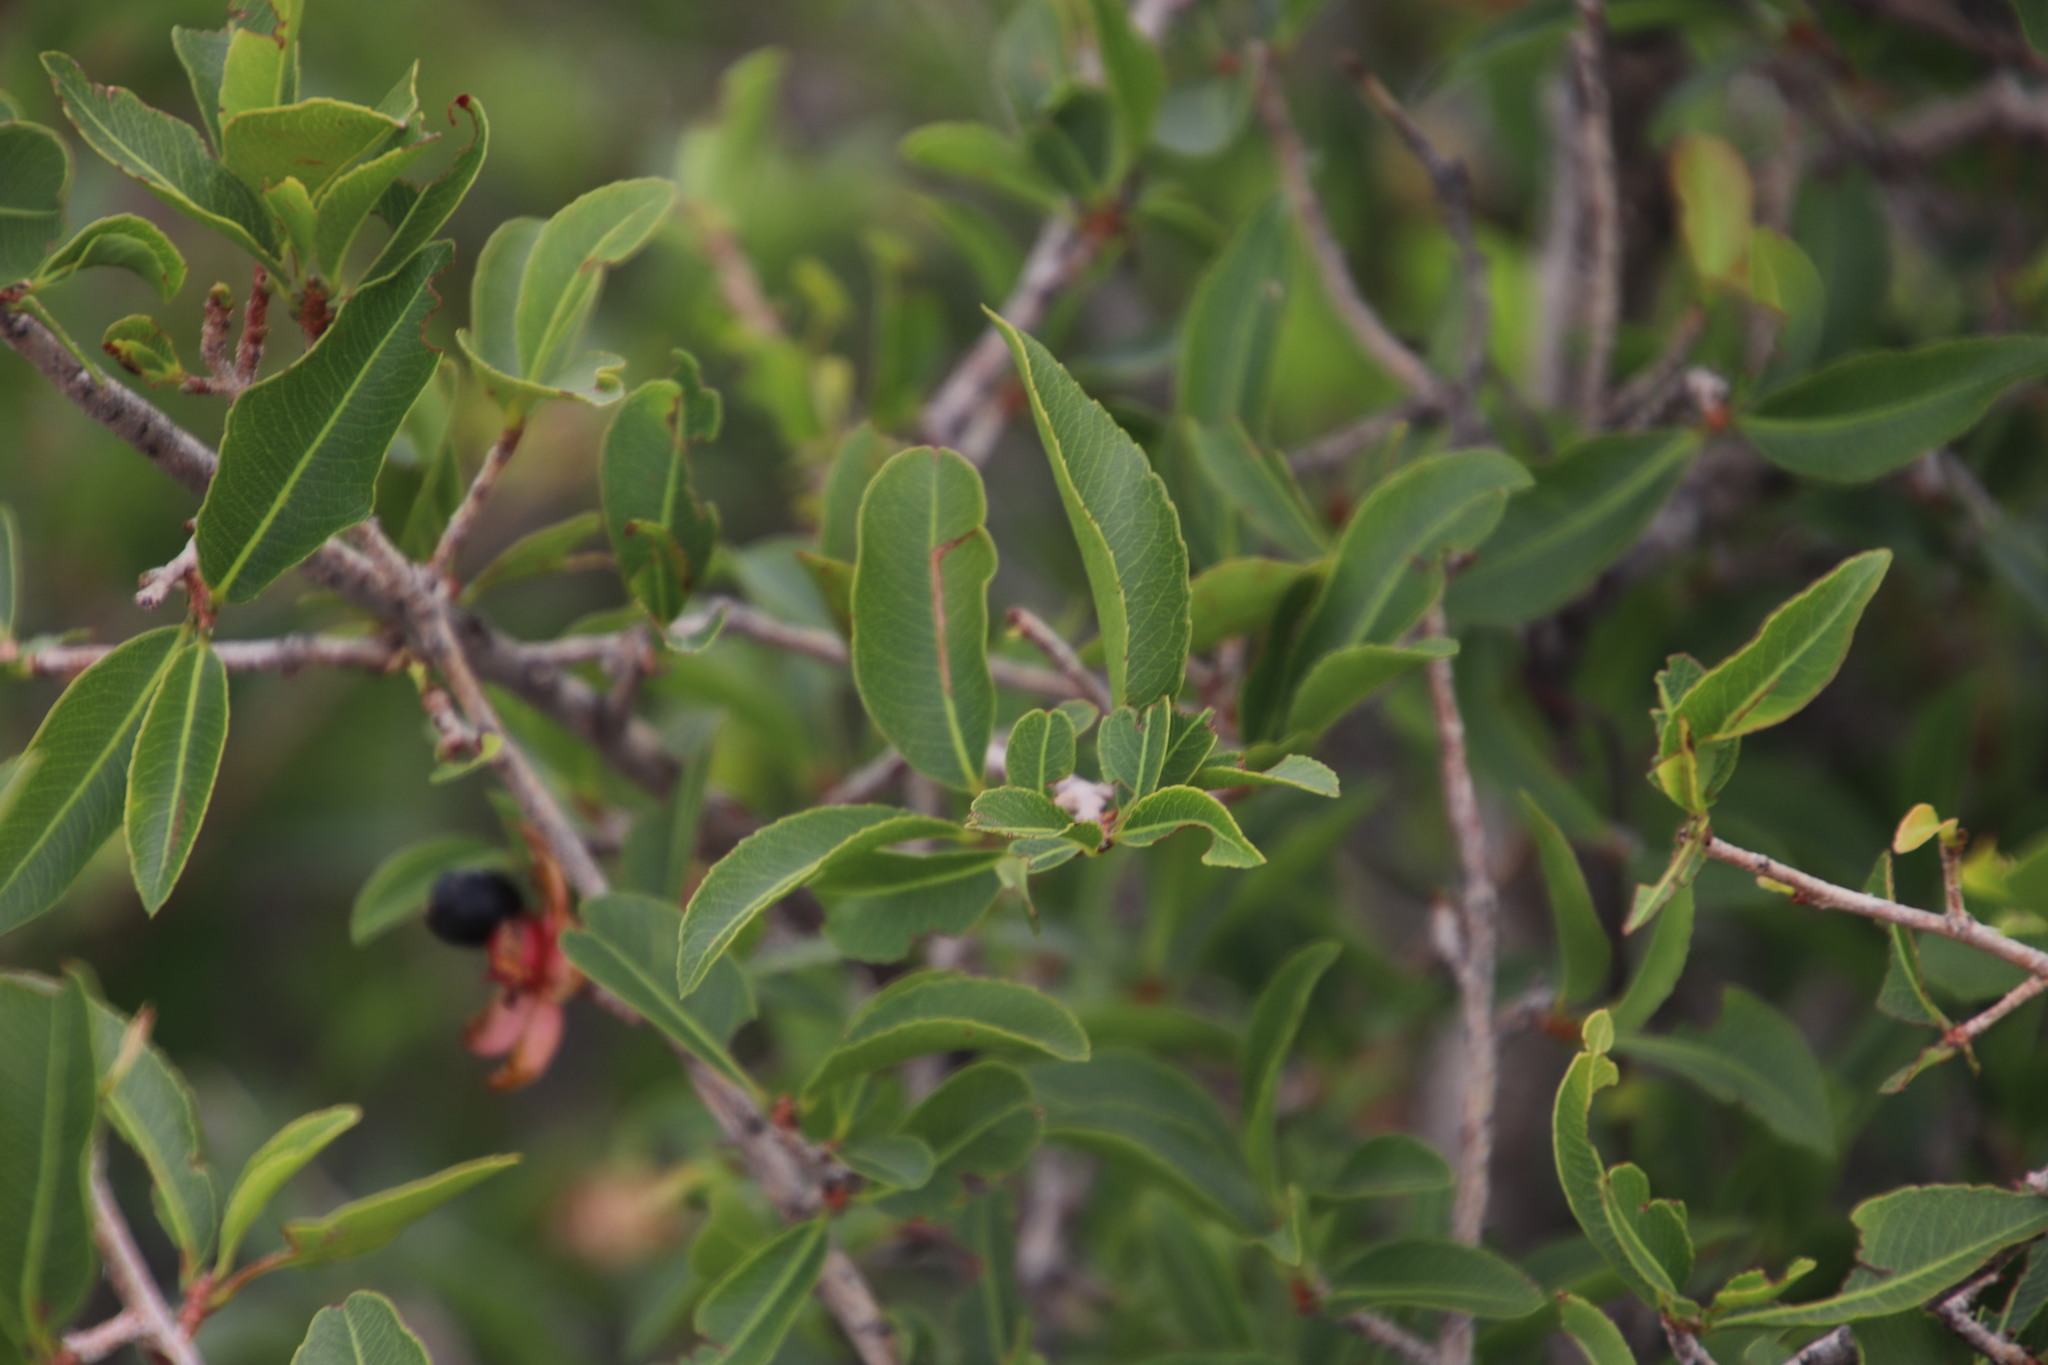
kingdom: Plantae
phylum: Tracheophyta
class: Magnoliopsida
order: Malpighiales
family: Ochnaceae
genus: Ochna
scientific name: Ochna pretoriensis
